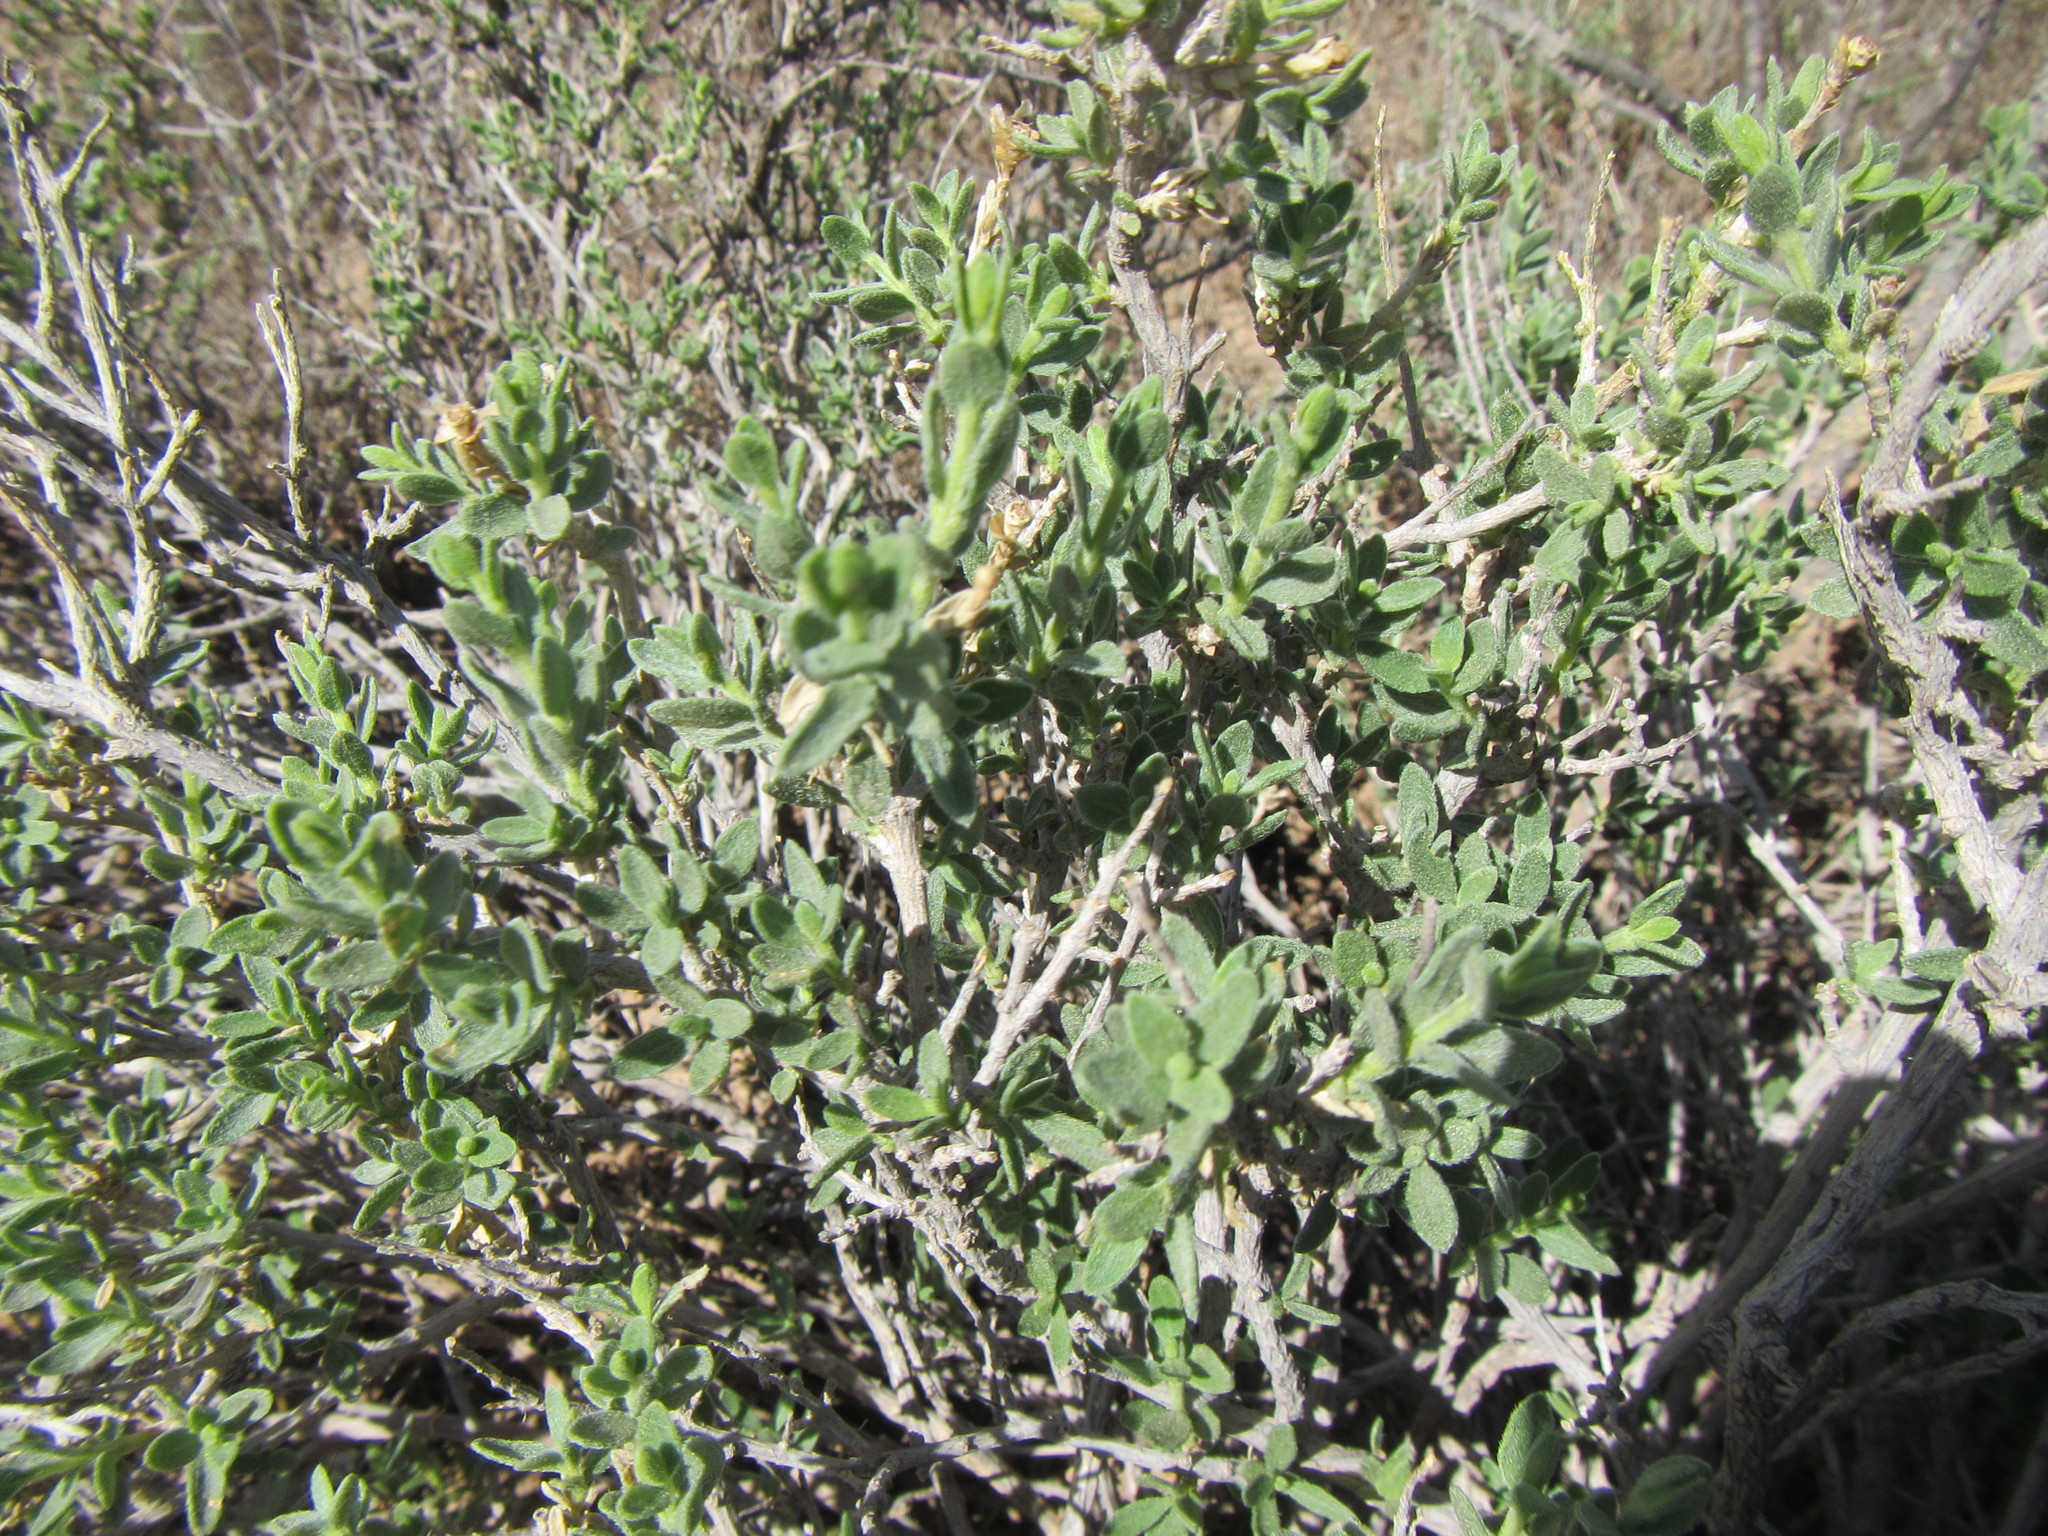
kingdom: Plantae
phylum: Tracheophyta
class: Magnoliopsida
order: Asterales
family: Asteraceae
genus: Pteronia
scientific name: Pteronia inflexa
